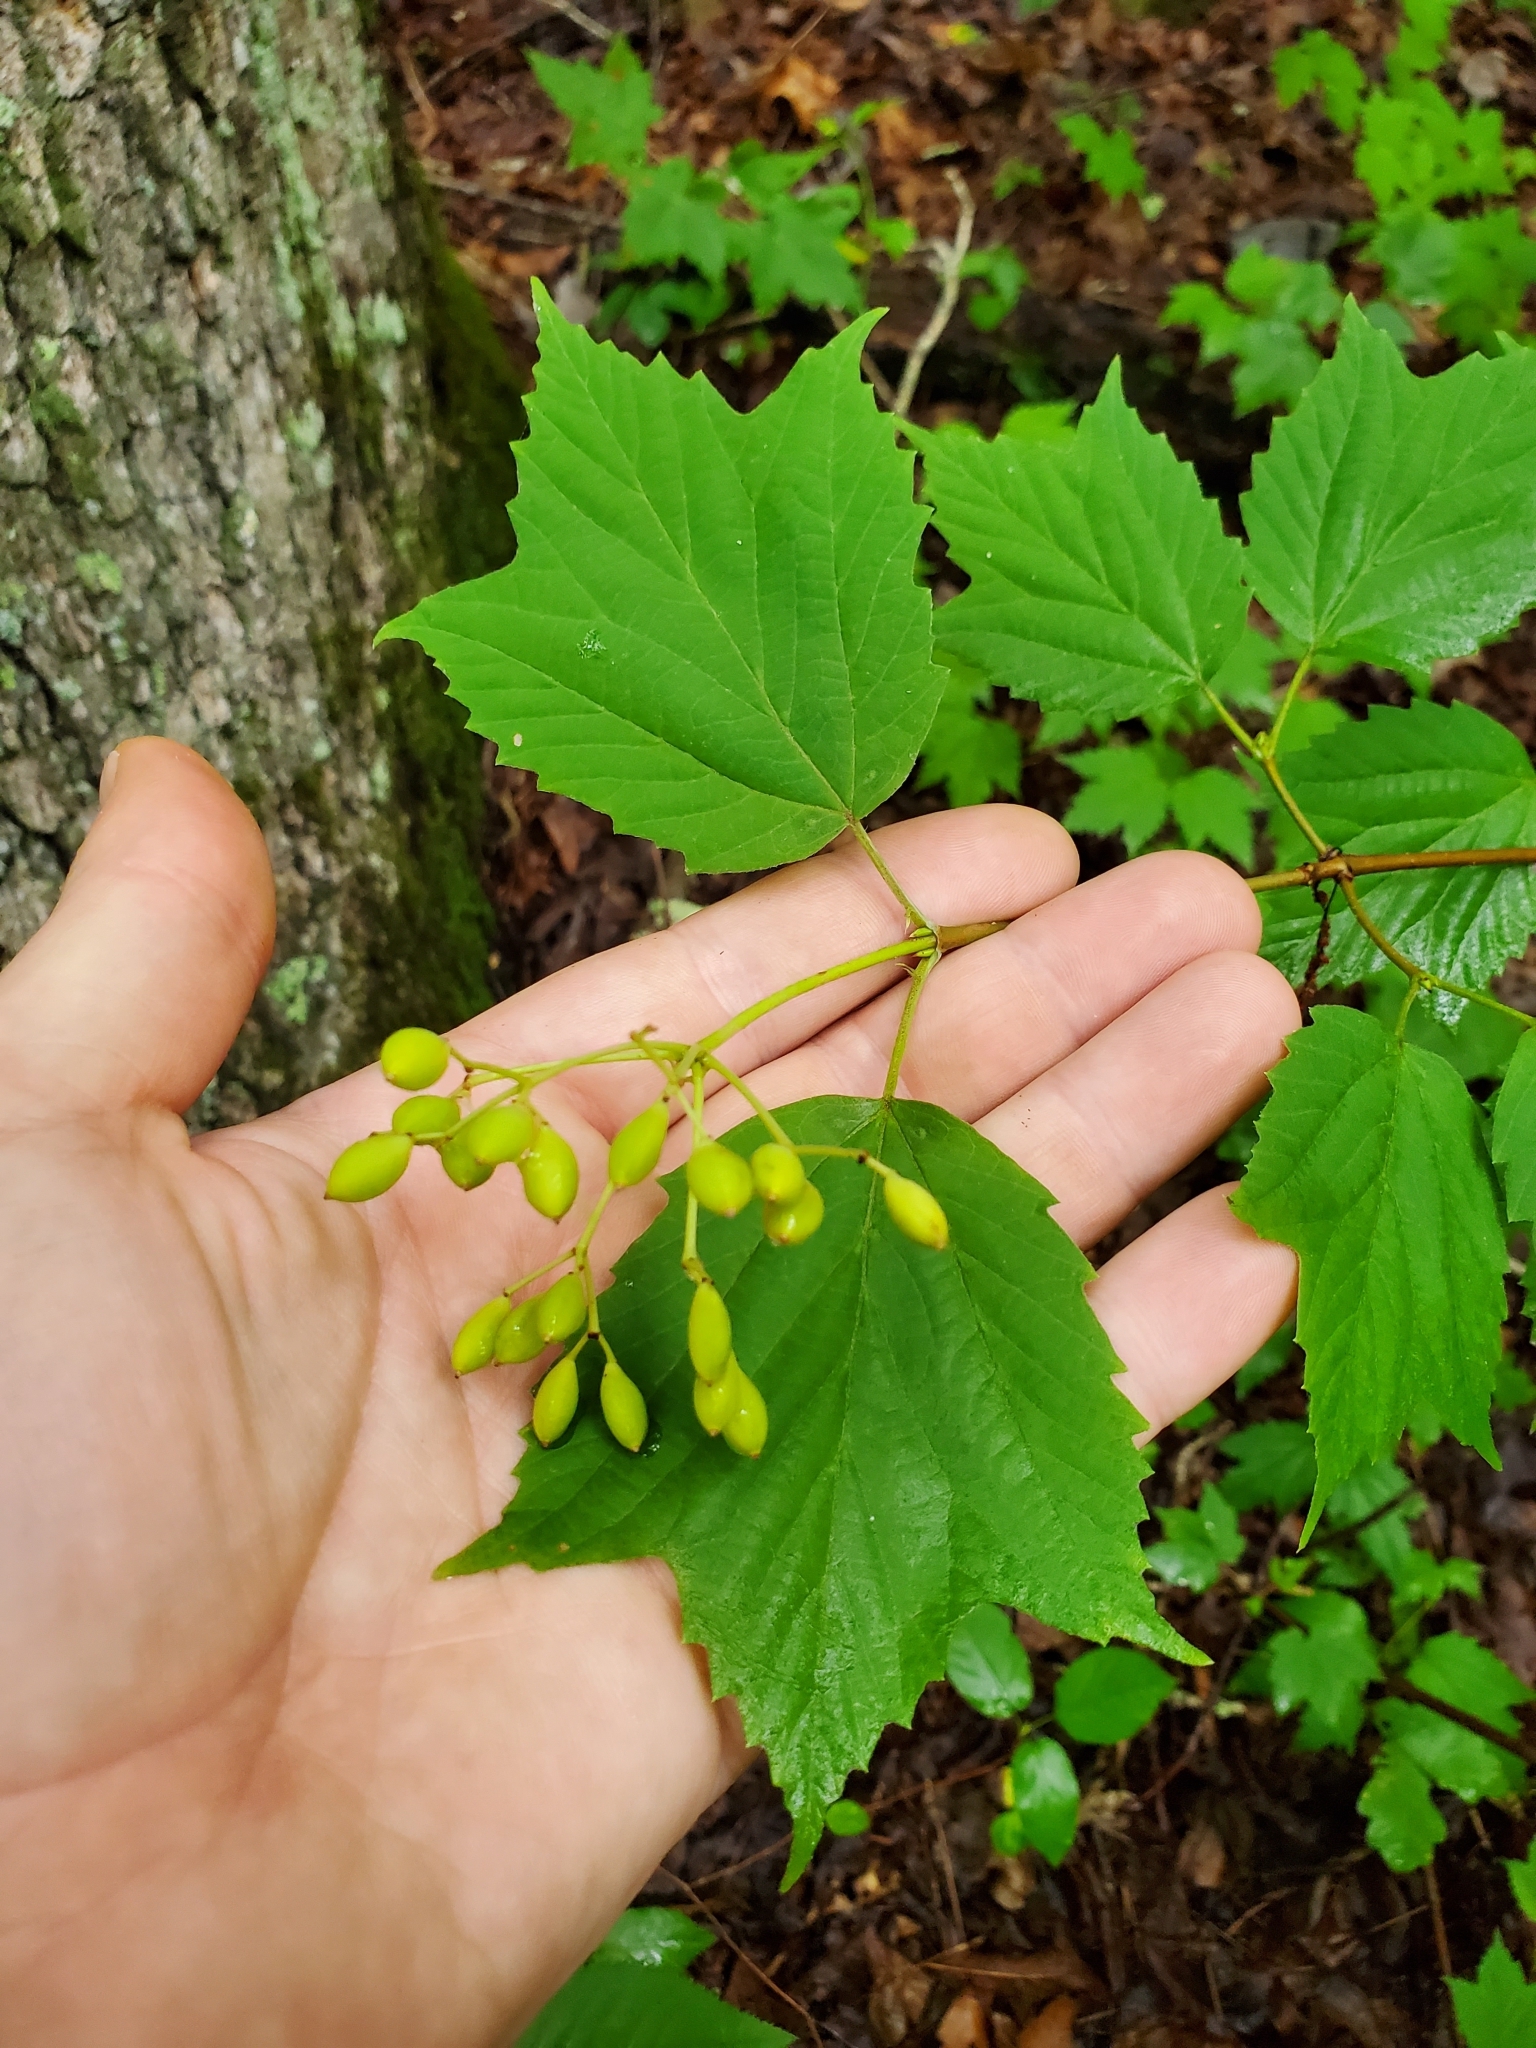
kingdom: Plantae
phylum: Tracheophyta
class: Magnoliopsida
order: Dipsacales
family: Viburnaceae
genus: Viburnum
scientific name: Viburnum acerifolium
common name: Dockmackie
